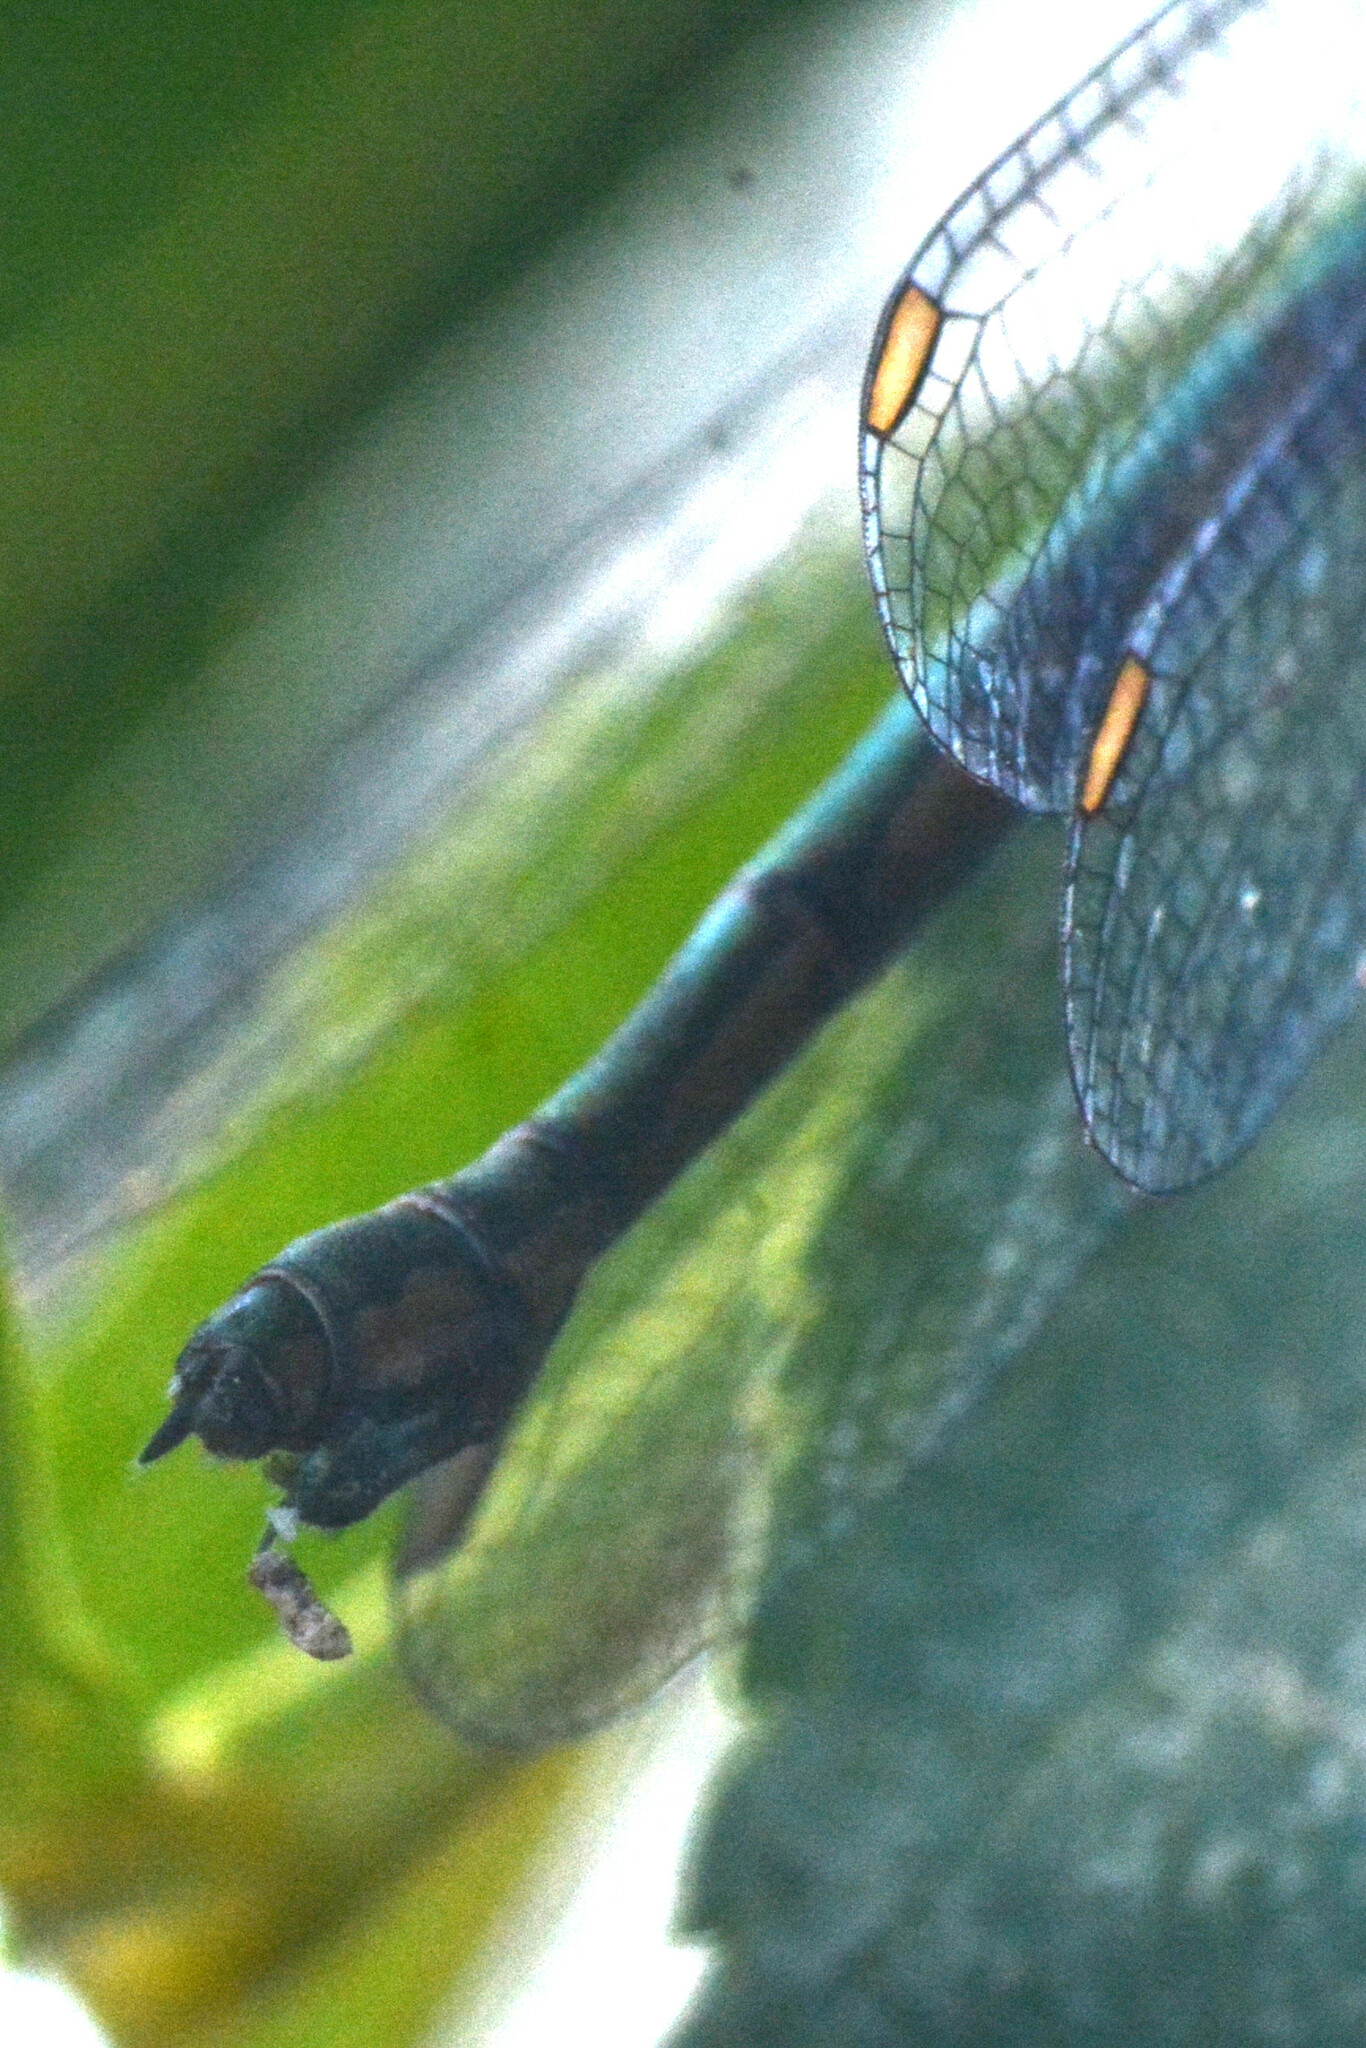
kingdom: Animalia
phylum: Arthropoda
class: Insecta
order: Odonata
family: Lestidae
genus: Chalcolestes
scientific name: Chalcolestes viridis
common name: Green emerald damselfly
